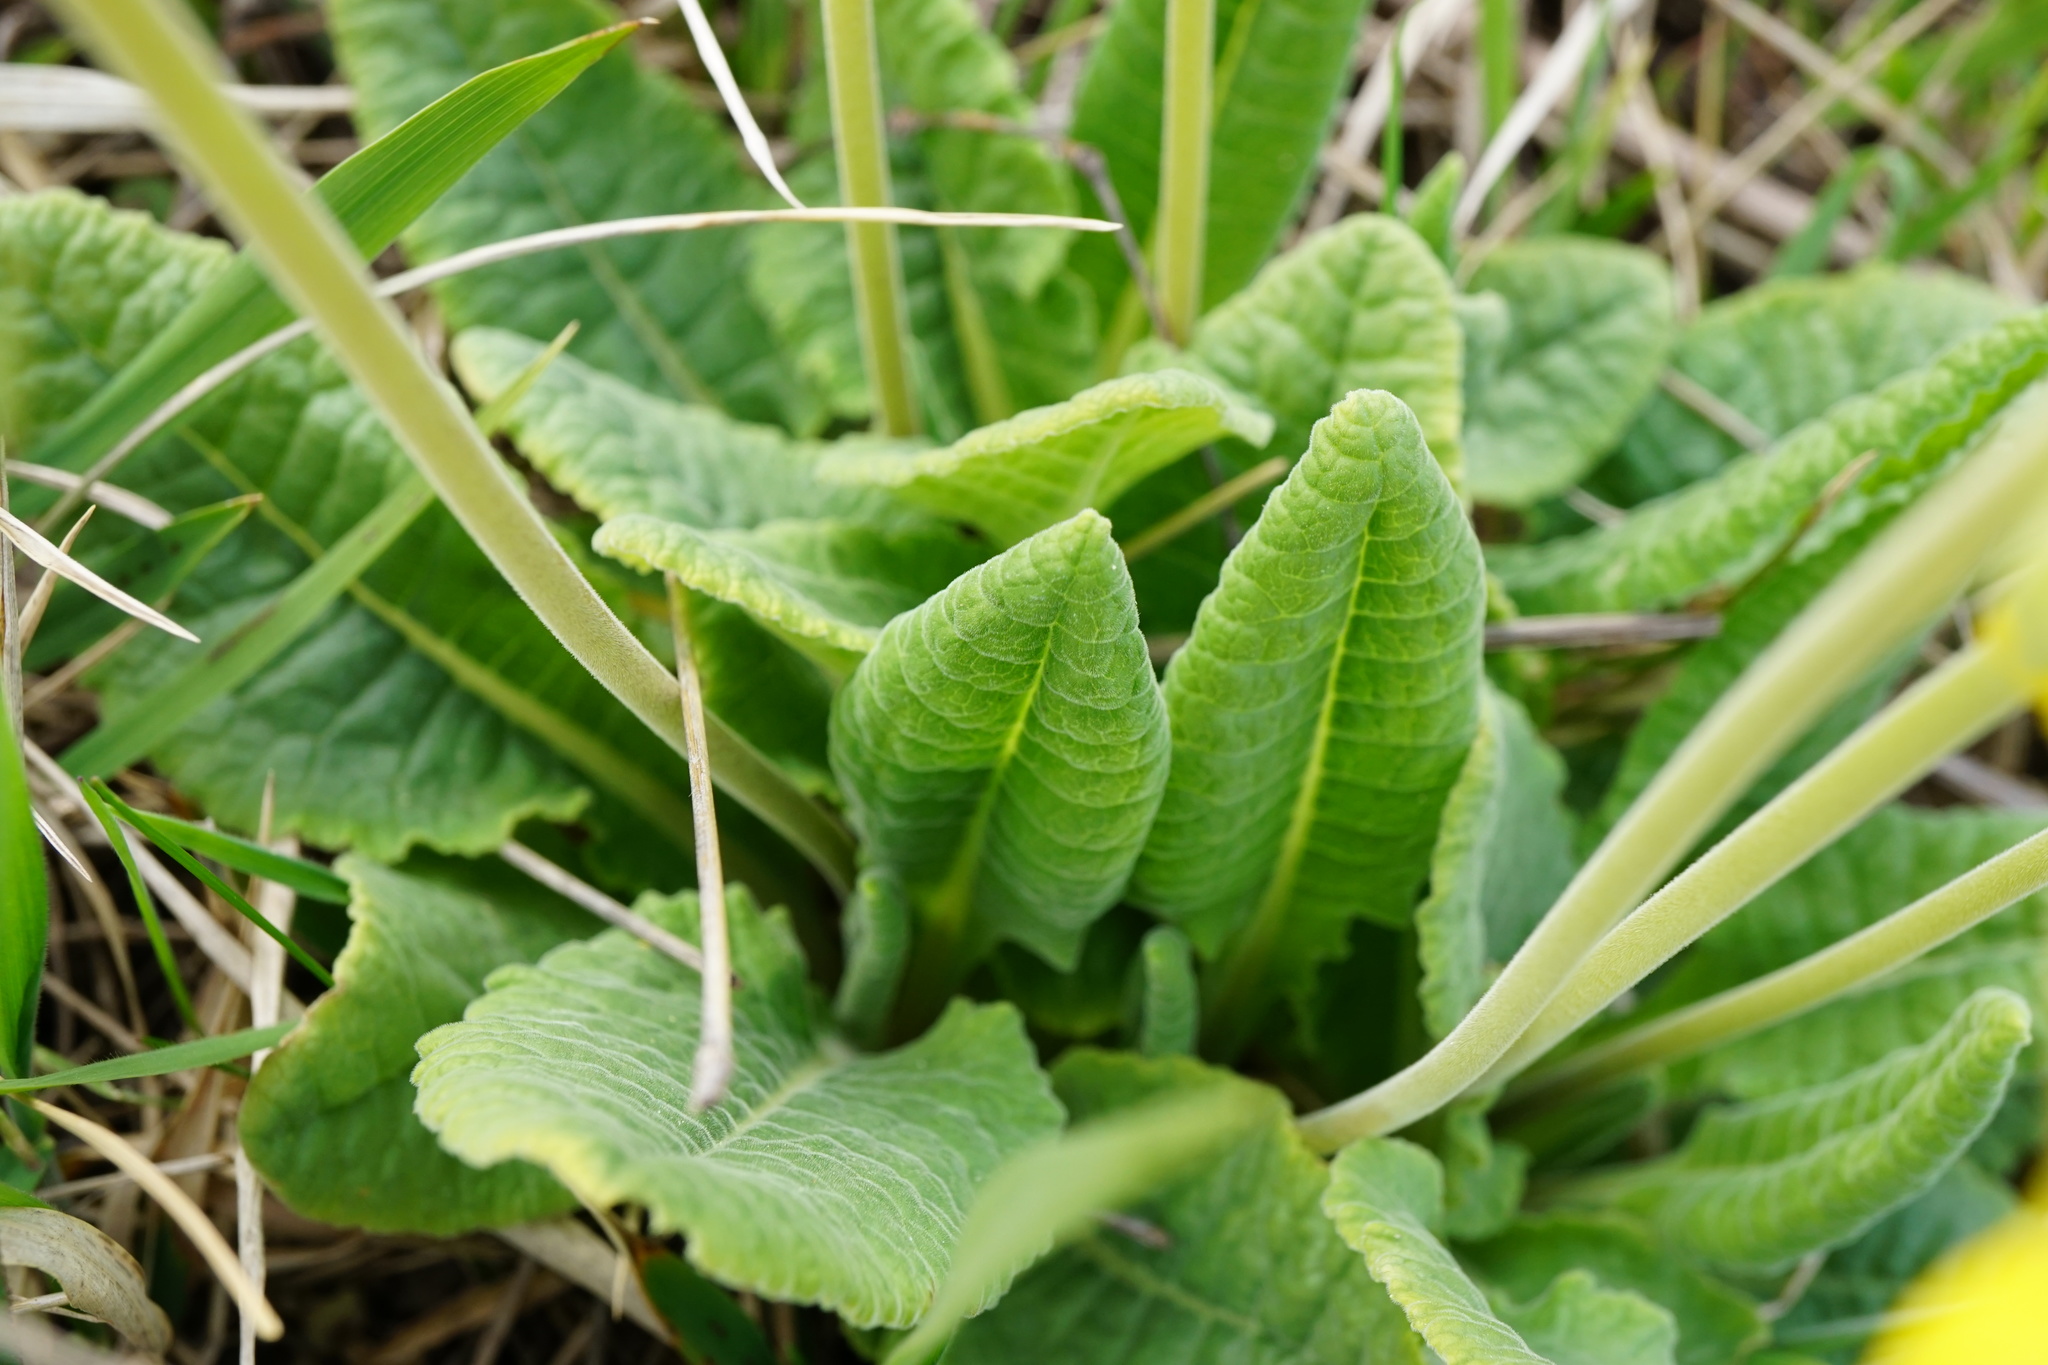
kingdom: Plantae
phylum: Tracheophyta
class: Magnoliopsida
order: Ericales
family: Primulaceae
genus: Primula
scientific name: Primula veris
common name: Cowslip
